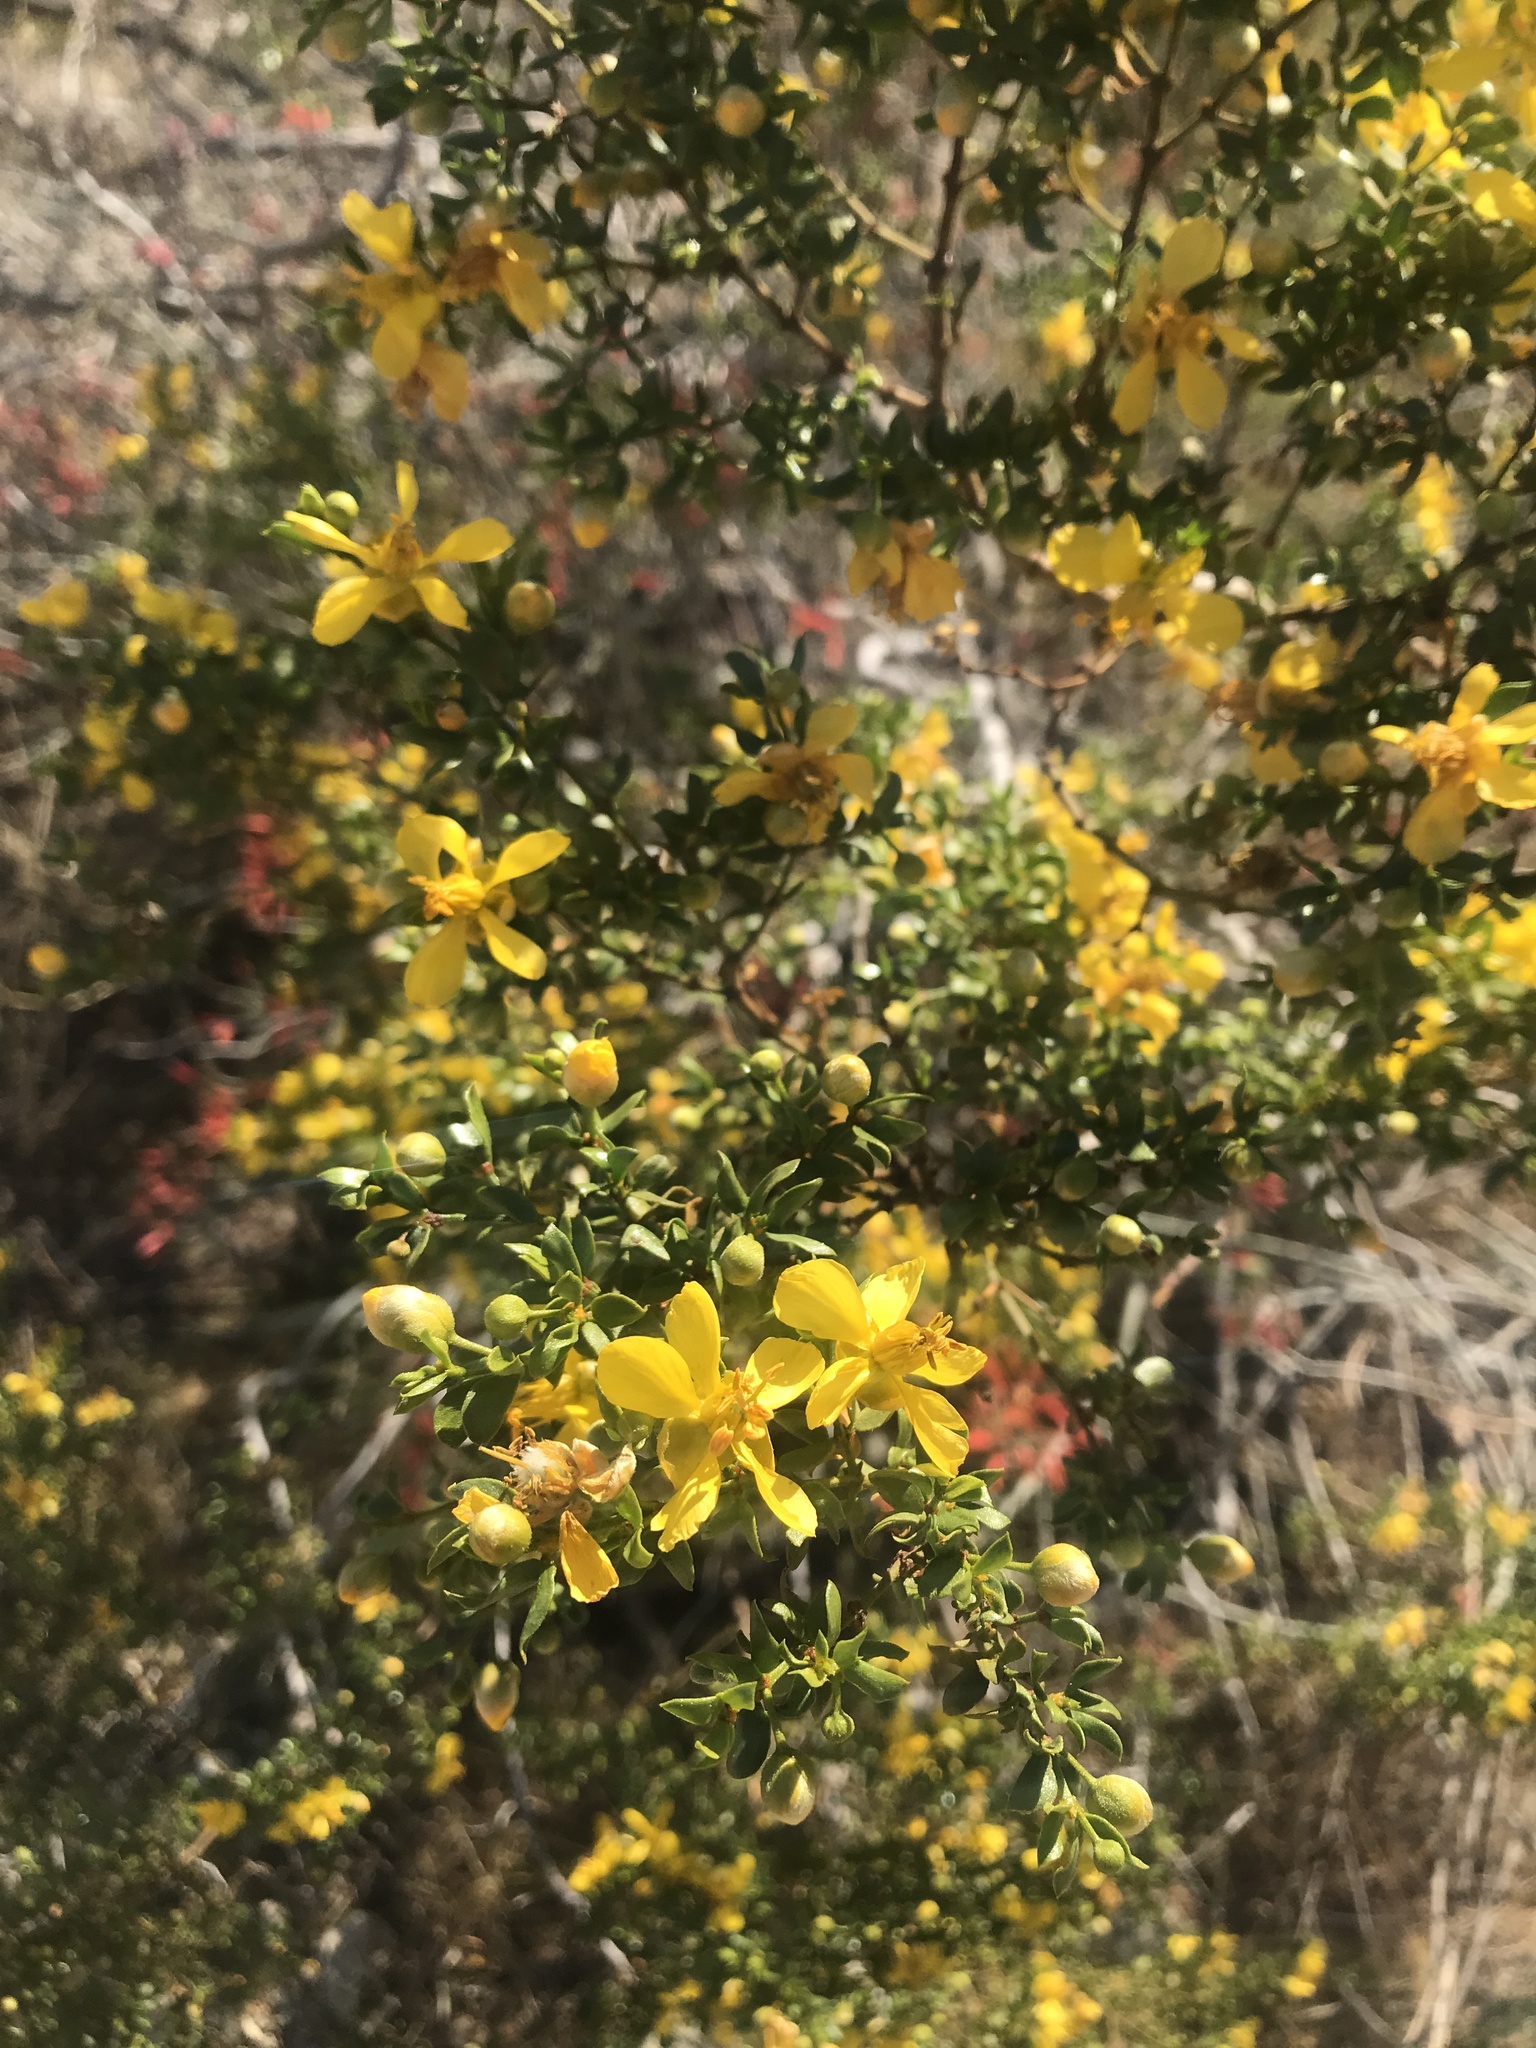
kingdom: Plantae
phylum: Tracheophyta
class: Magnoliopsida
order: Zygophyllales
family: Zygophyllaceae
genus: Larrea
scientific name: Larrea tridentata
